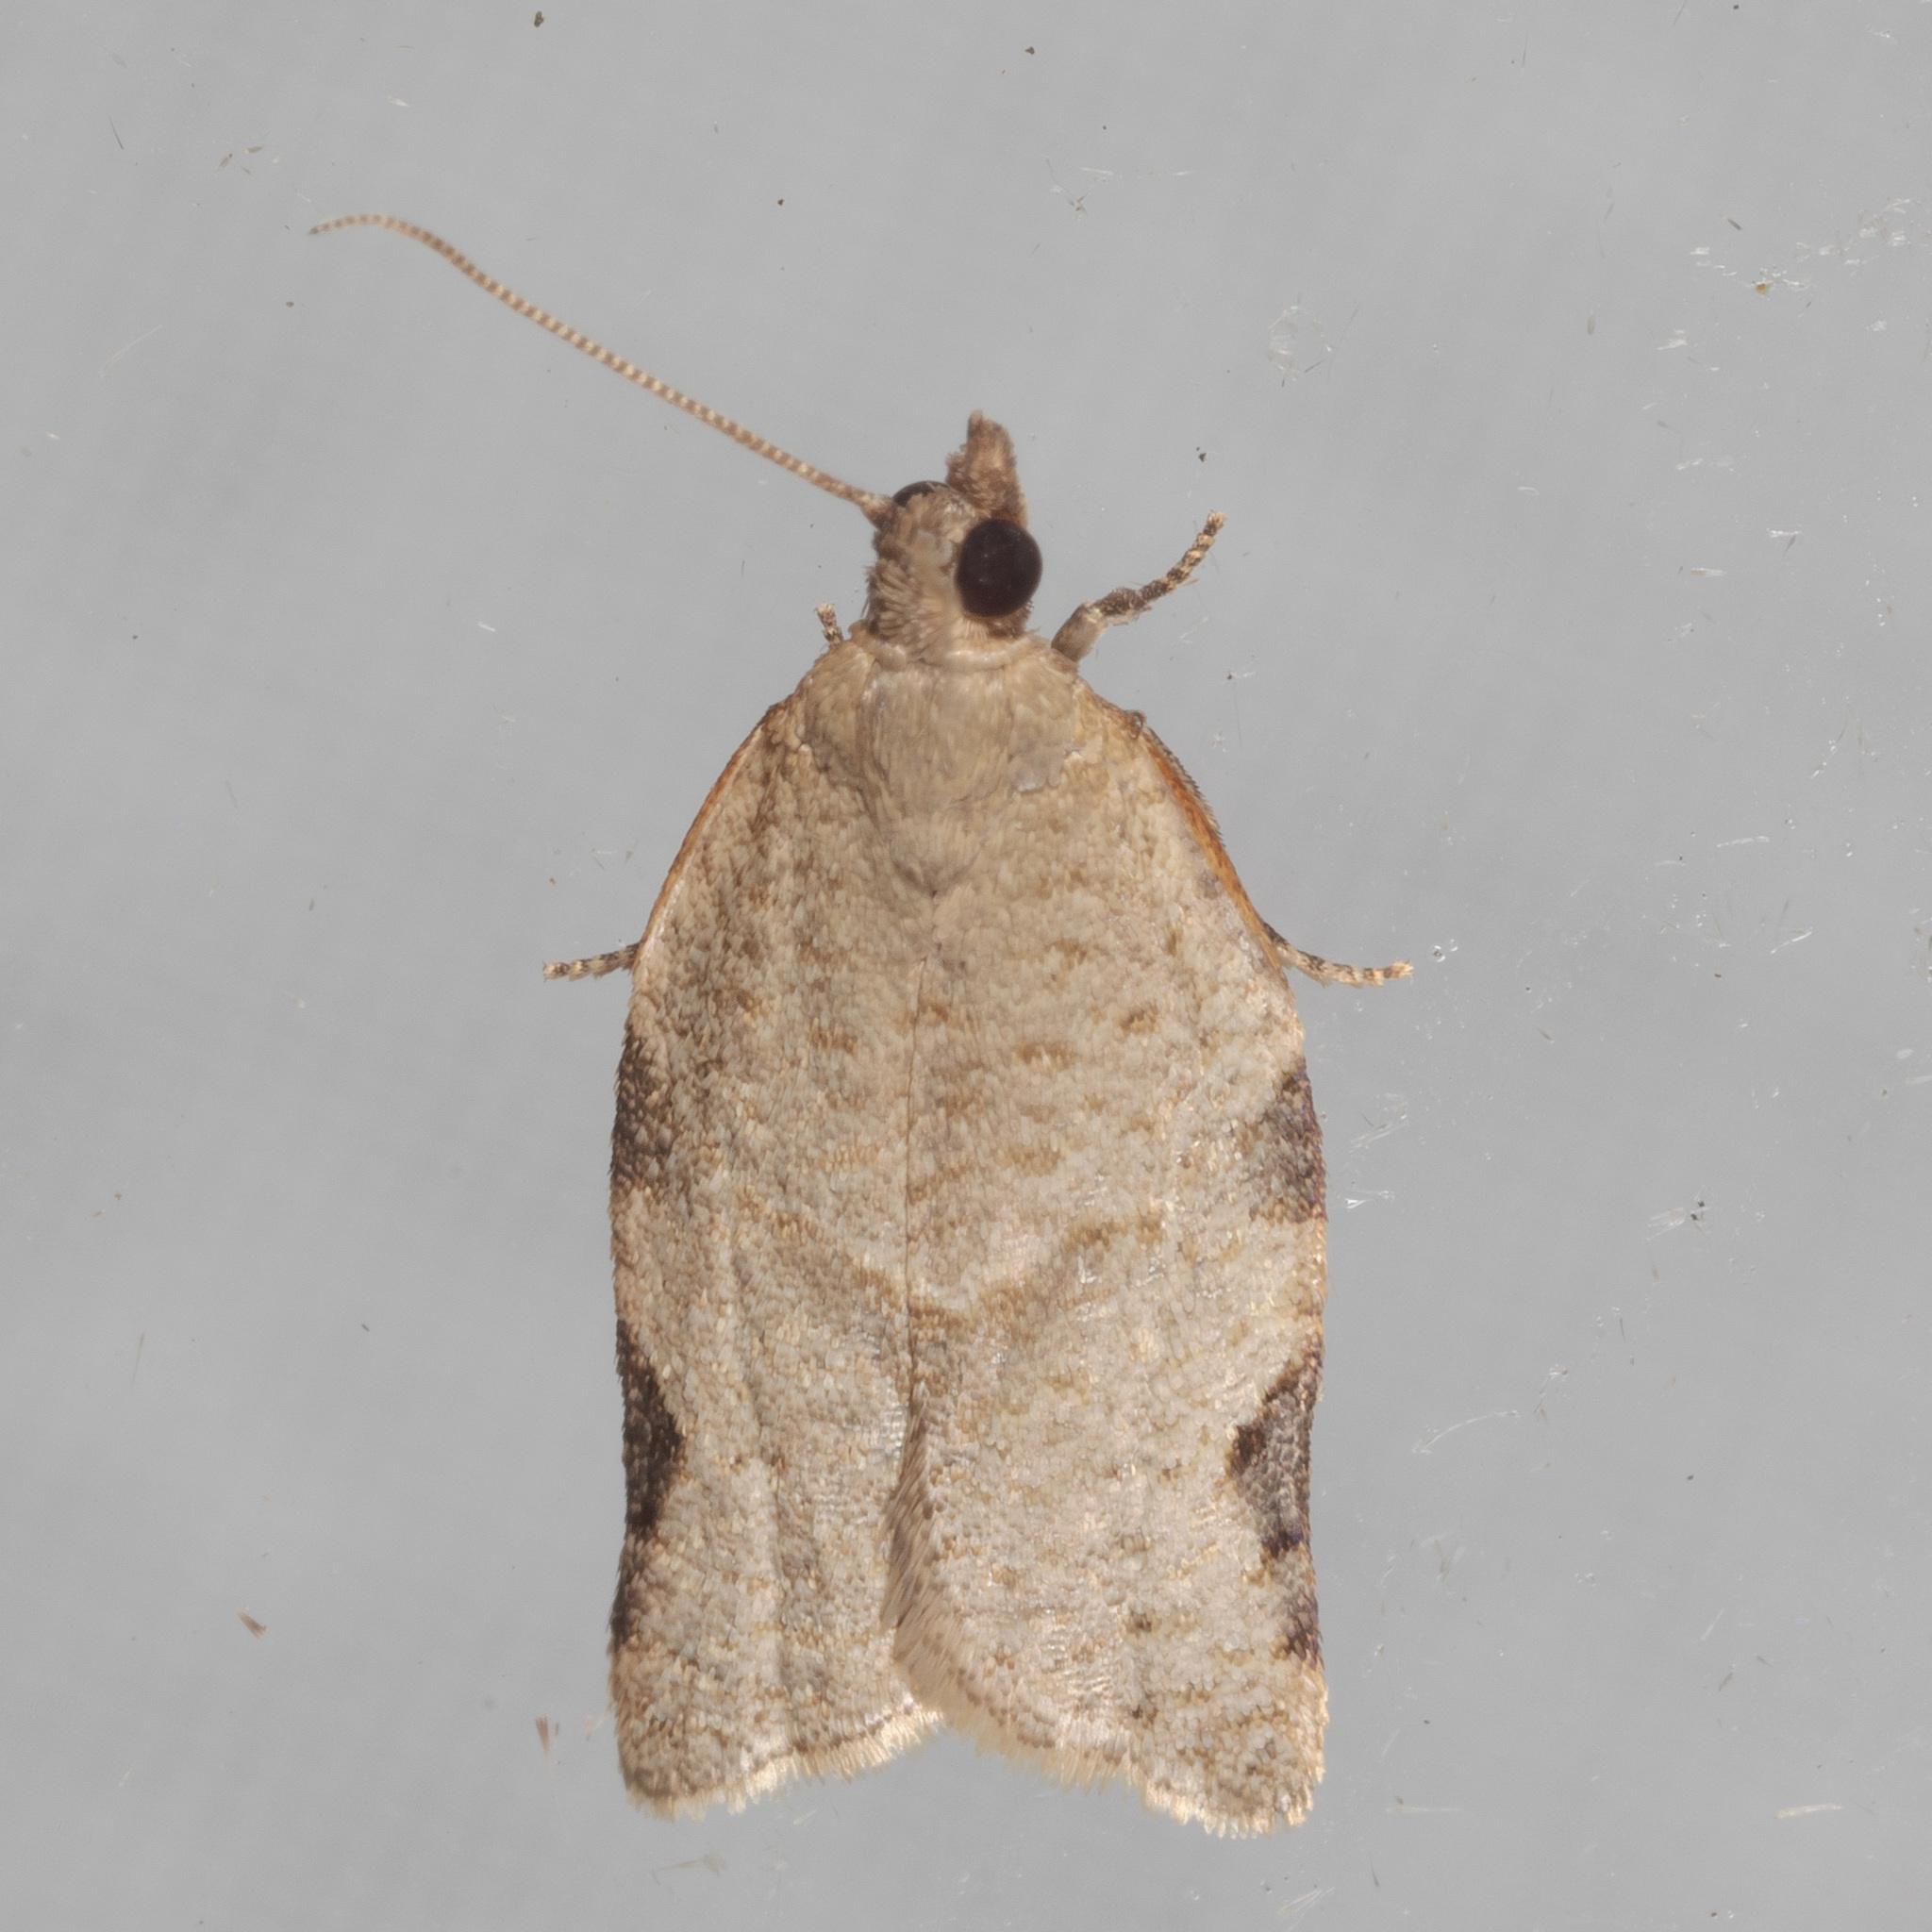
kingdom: Animalia
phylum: Arthropoda
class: Insecta
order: Lepidoptera
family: Tortricidae
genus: Clepsis
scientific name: Clepsis virescana
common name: Greenish apple moth
